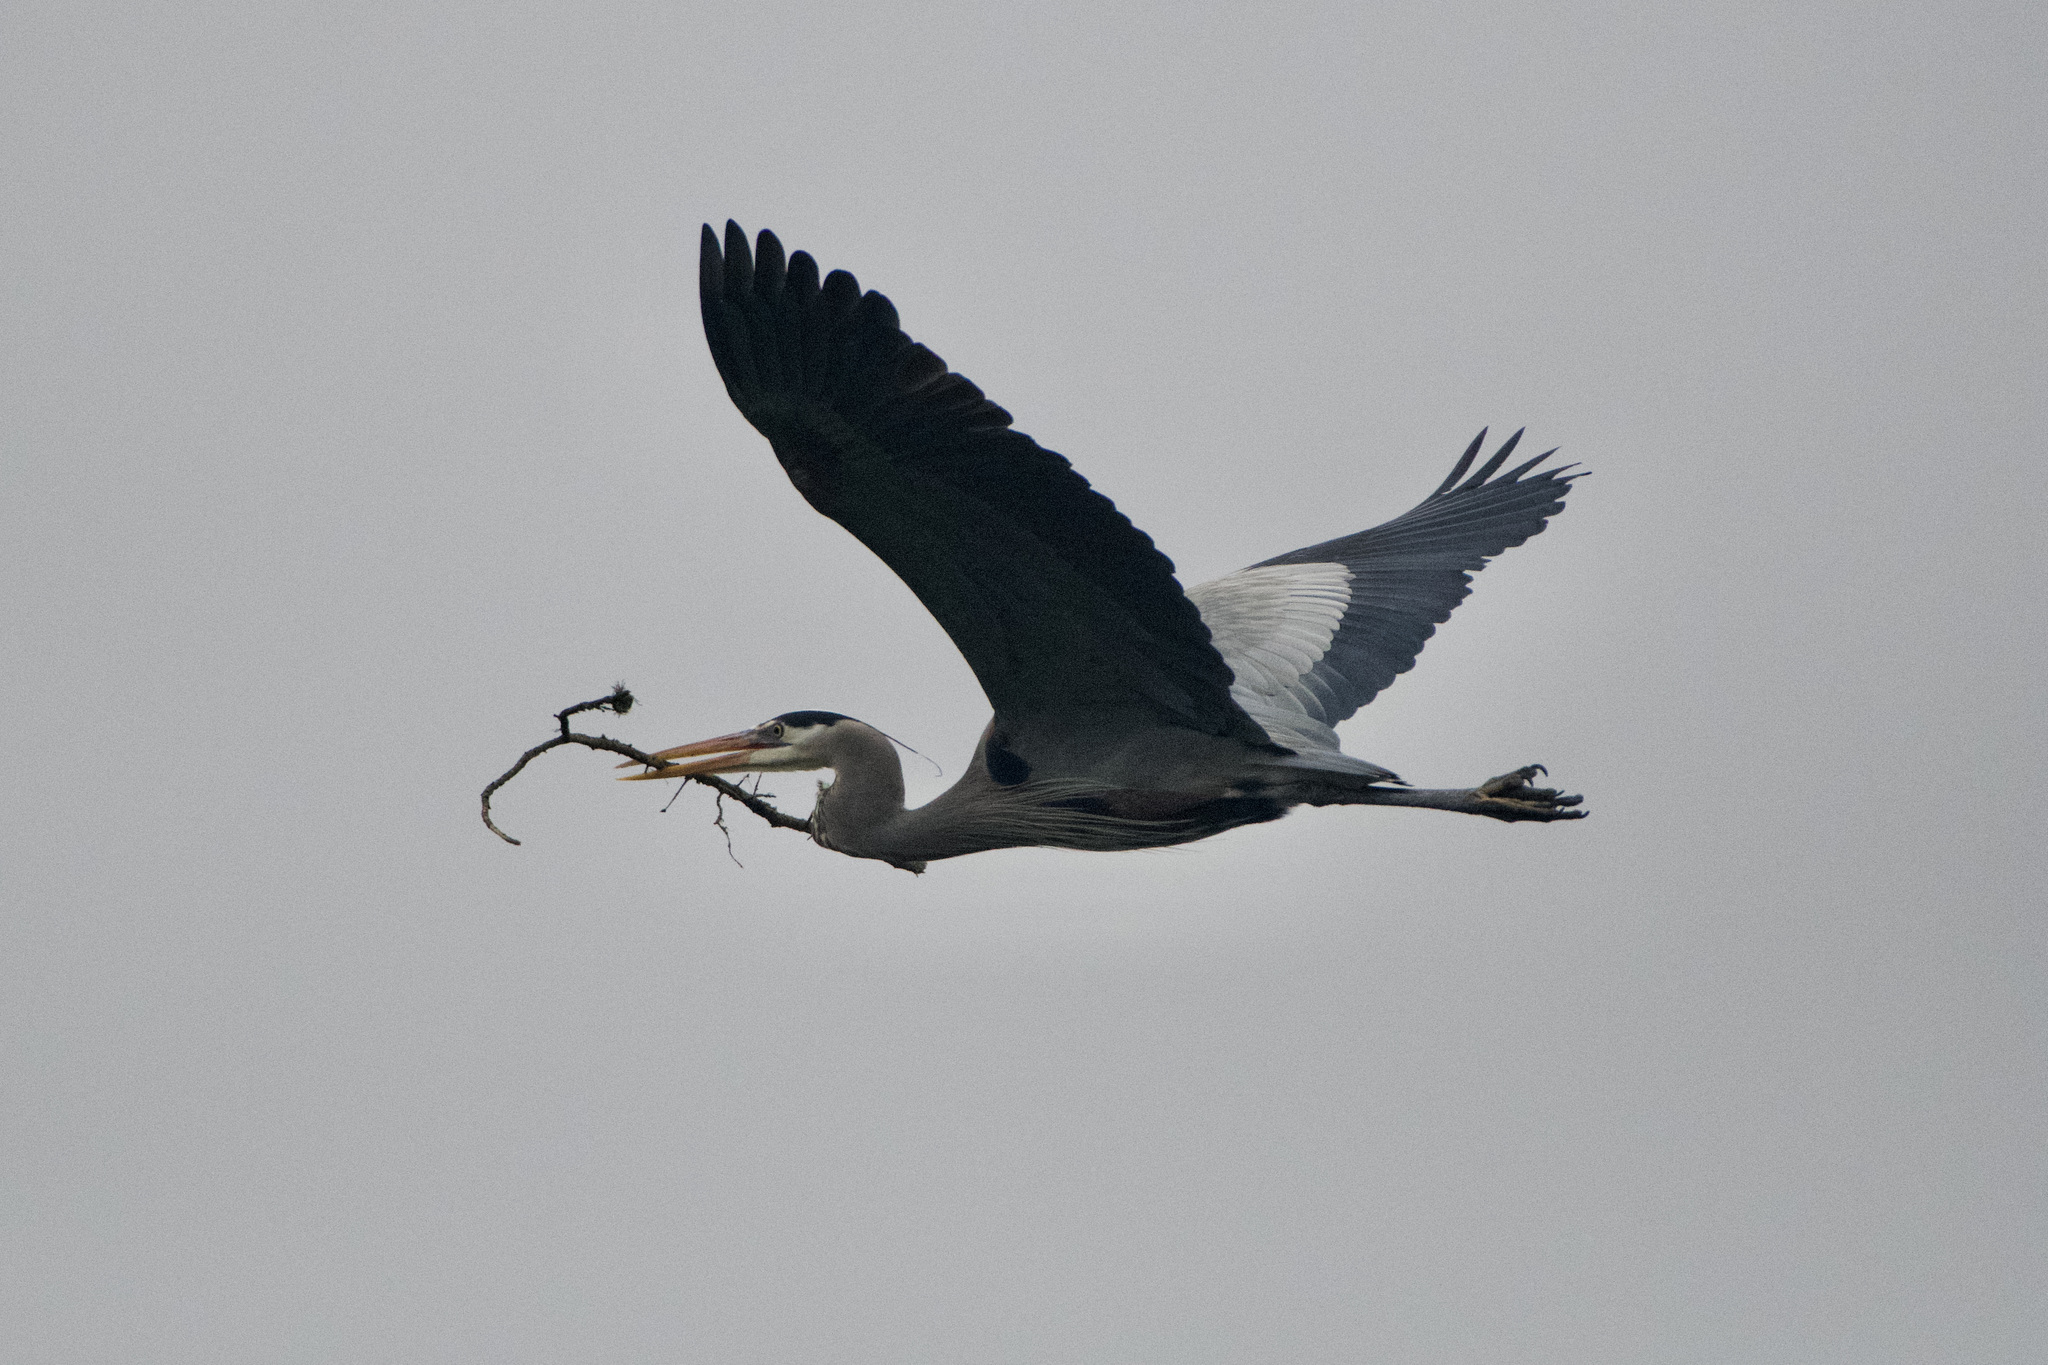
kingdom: Animalia
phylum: Chordata
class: Aves
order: Pelecaniformes
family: Ardeidae
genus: Ardea
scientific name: Ardea herodias
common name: Great blue heron
